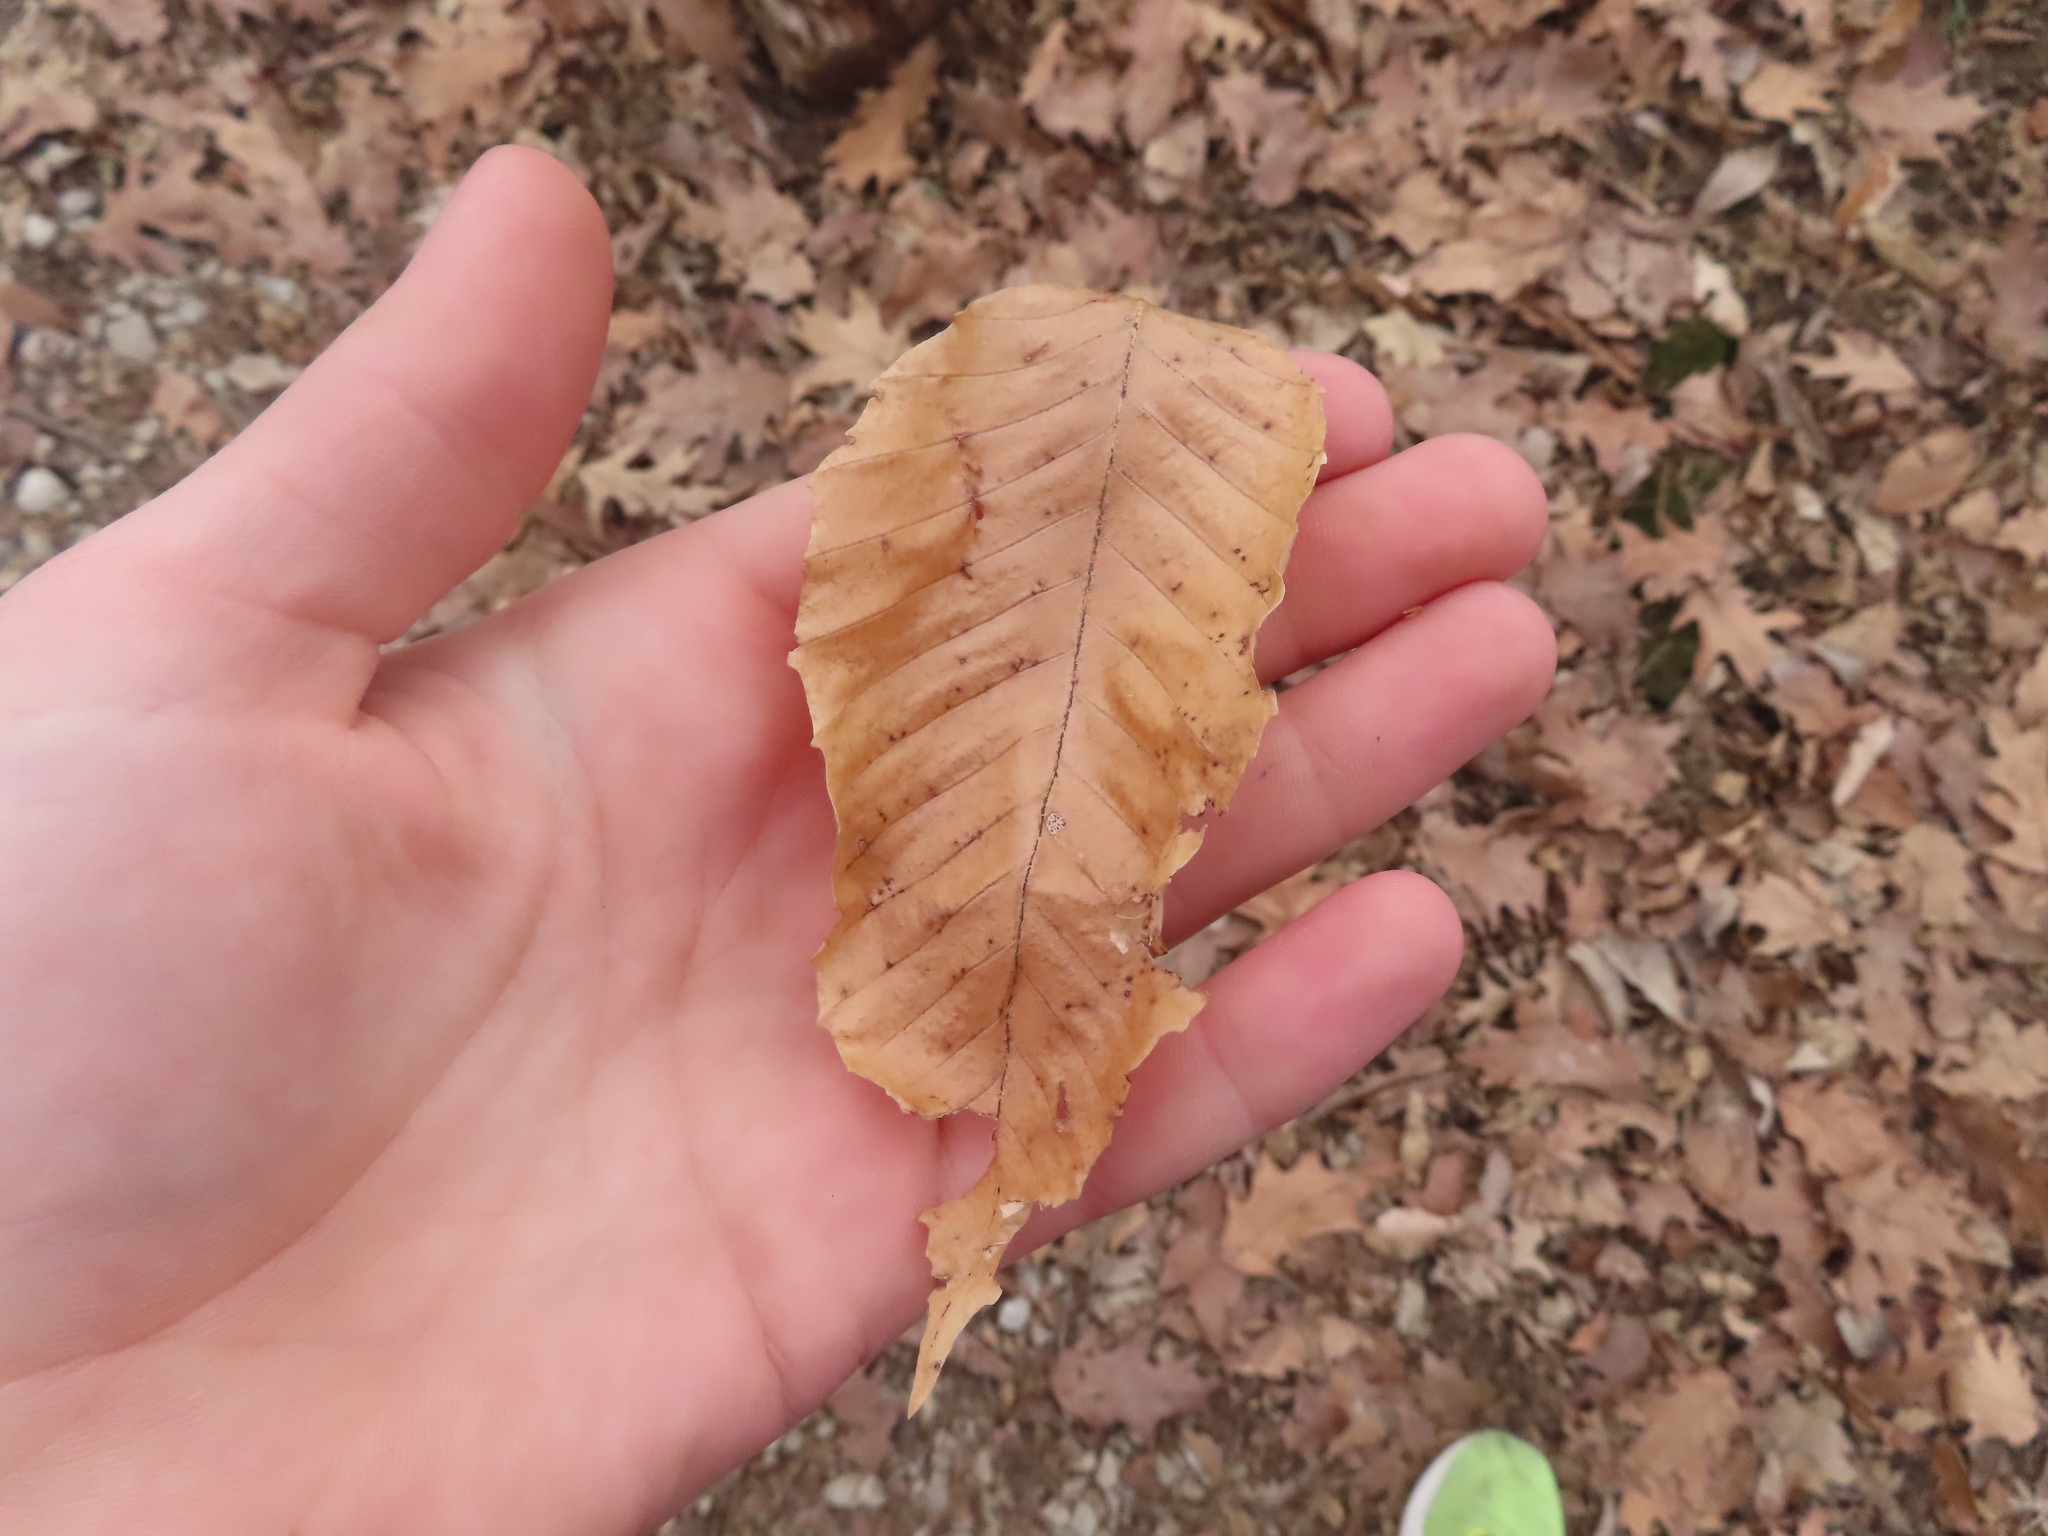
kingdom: Plantae
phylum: Tracheophyta
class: Magnoliopsida
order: Fagales
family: Fagaceae
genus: Fagus
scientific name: Fagus grandifolia
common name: American beech
